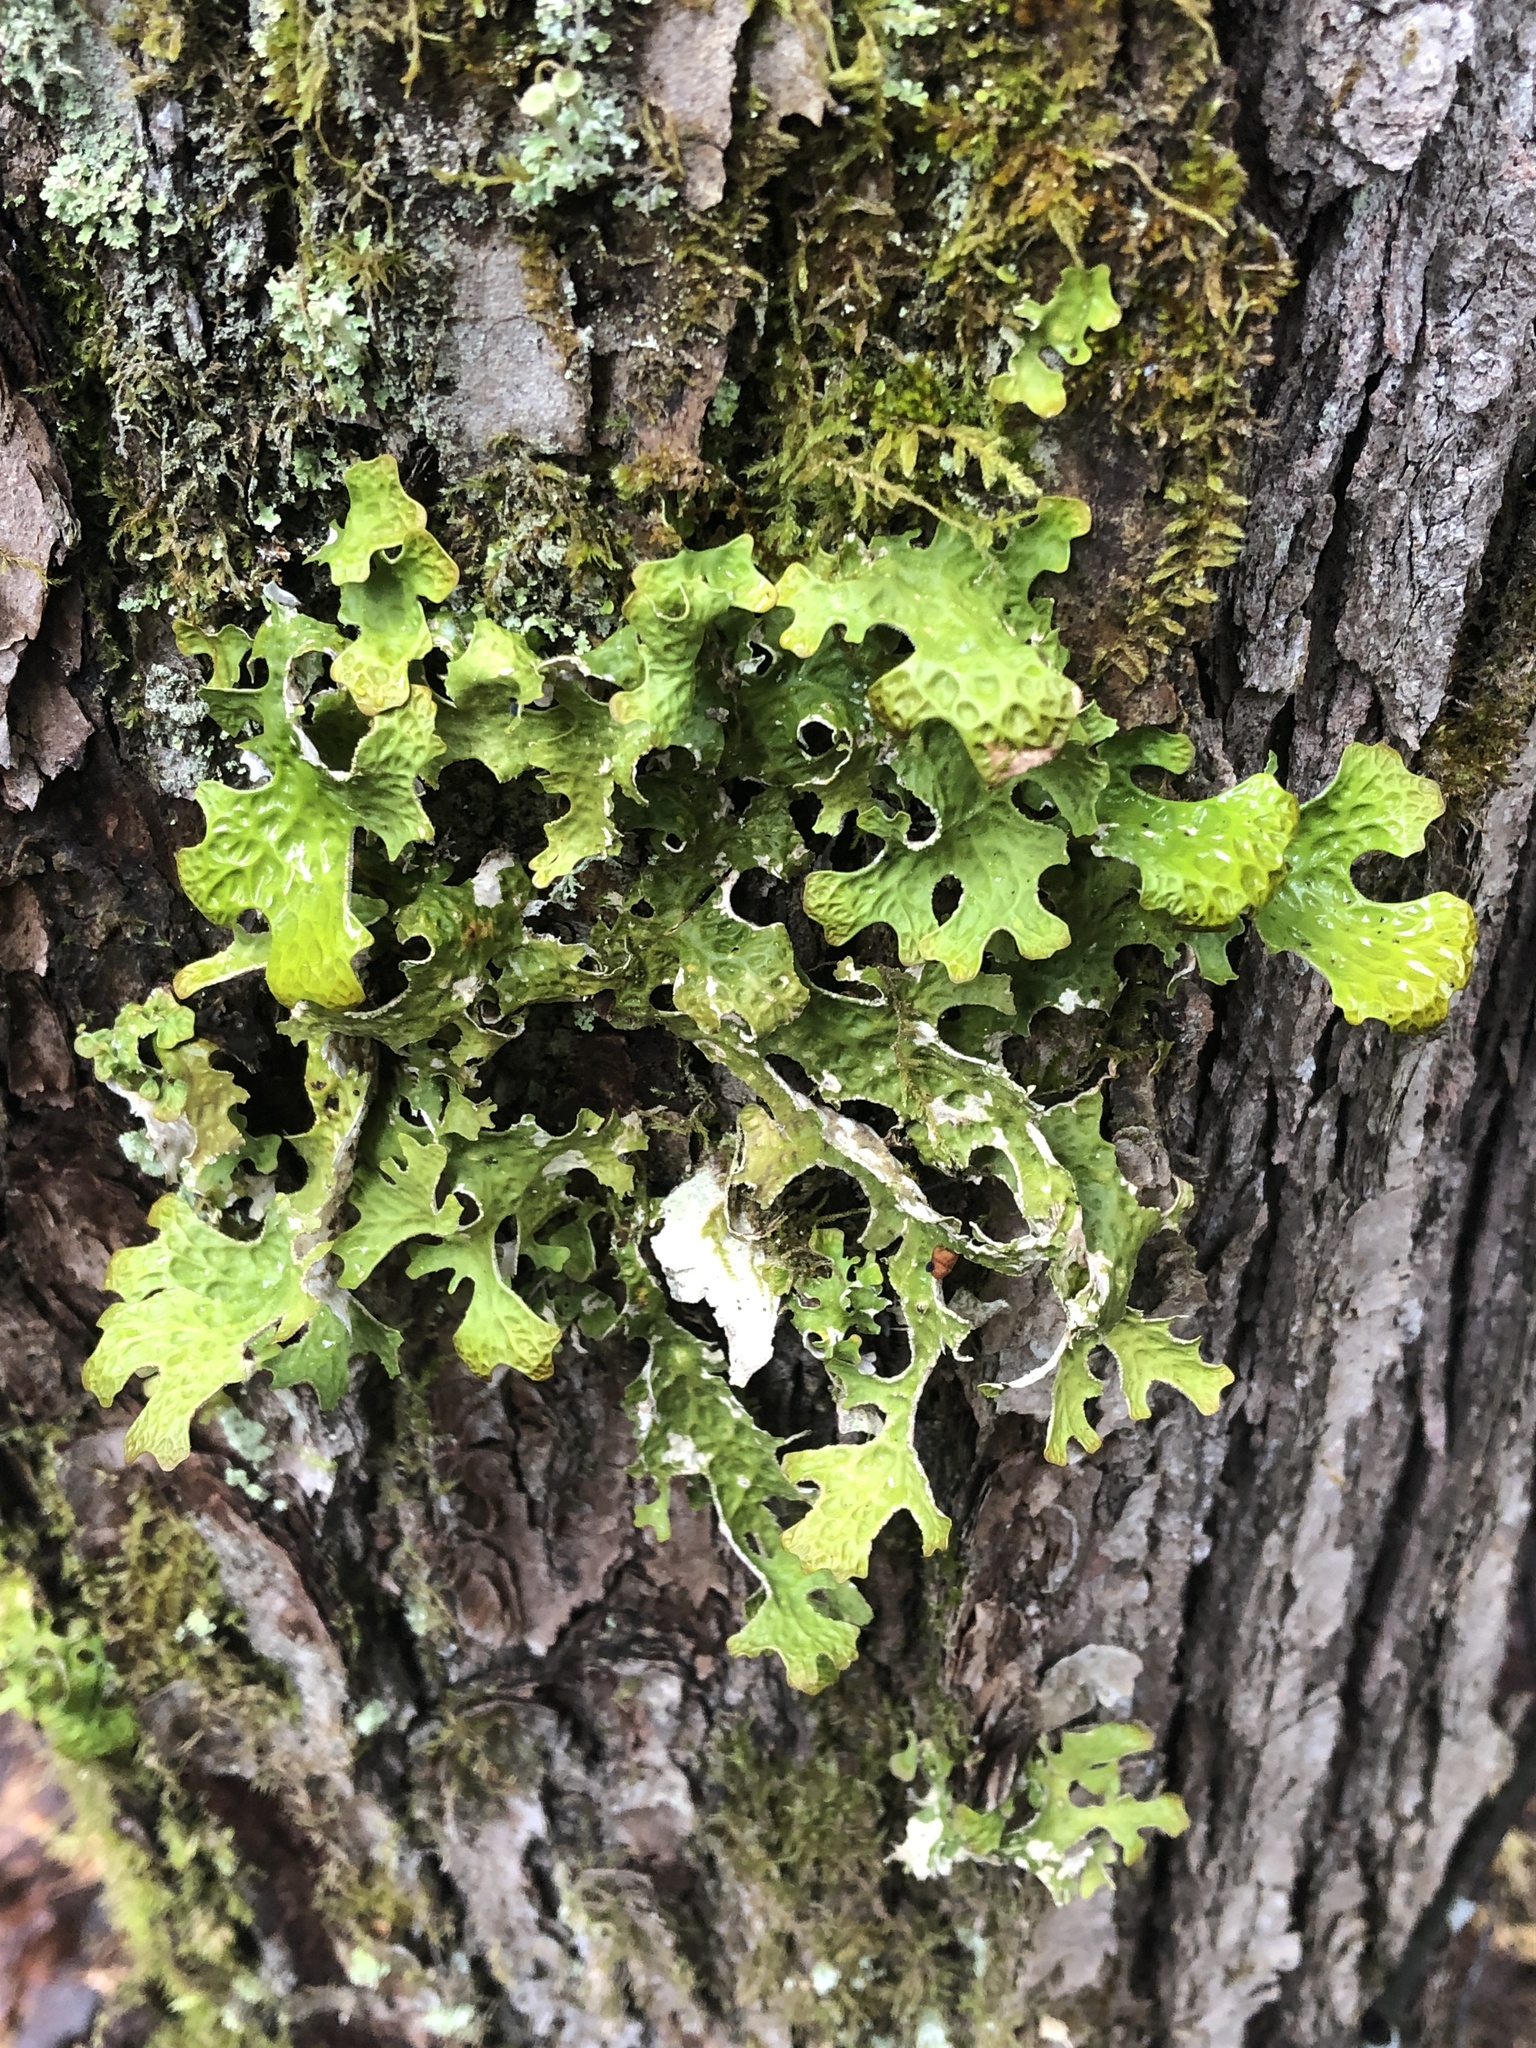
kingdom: Fungi
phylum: Ascomycota
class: Lecanoromycetes
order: Peltigerales
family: Lobariaceae
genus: Lobaria
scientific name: Lobaria pulmonaria
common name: Lungwort
